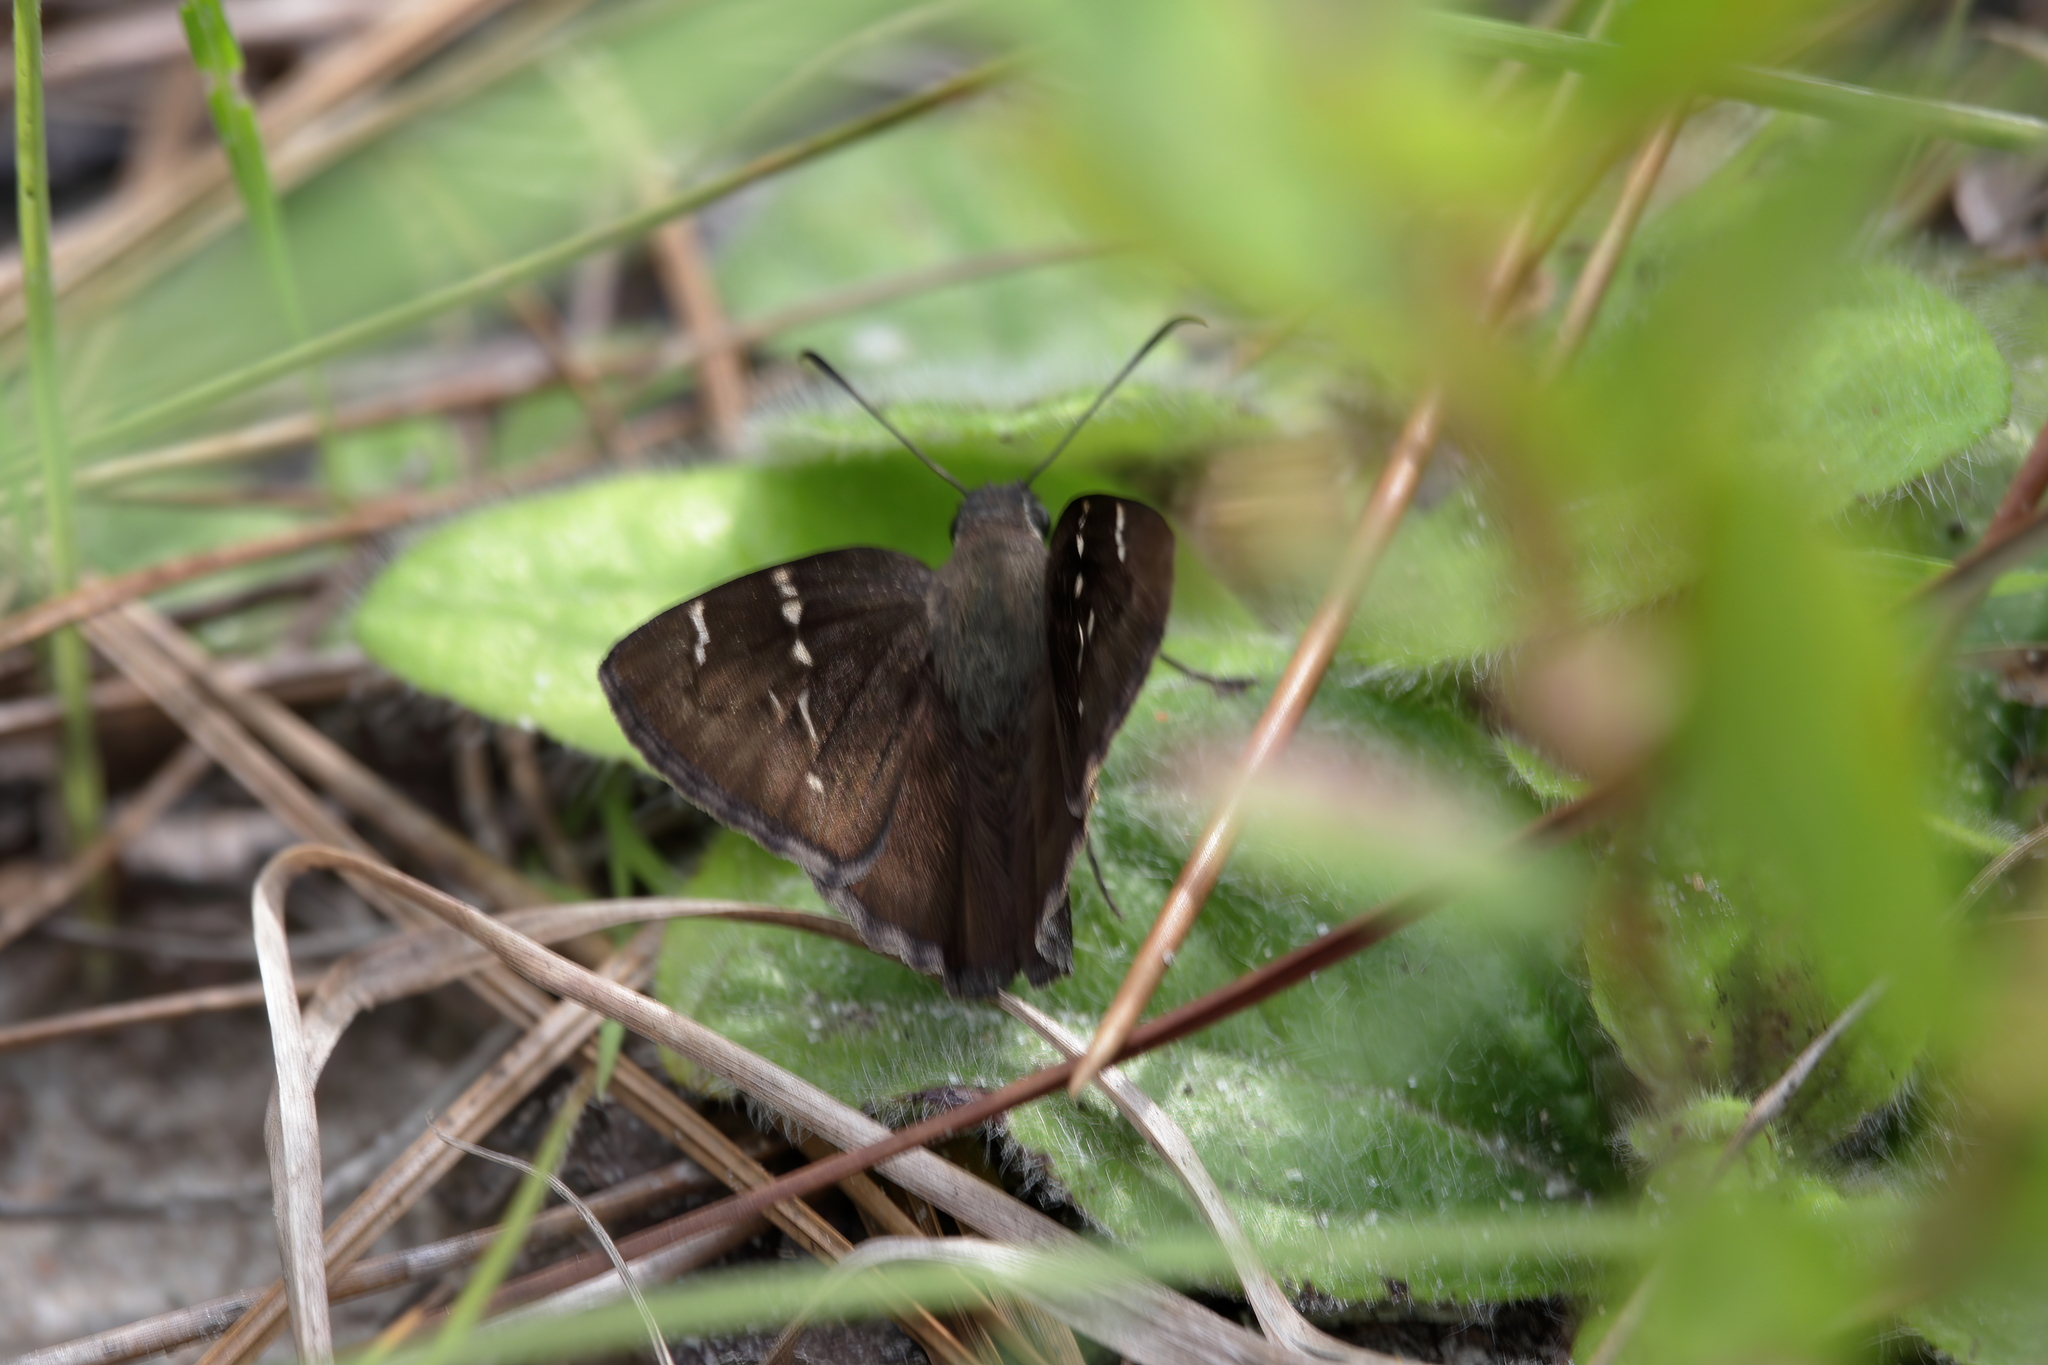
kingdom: Animalia
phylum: Arthropoda
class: Insecta
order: Lepidoptera
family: Hesperiidae
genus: Thorybes
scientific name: Thorybes mexicana
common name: Mexican cloudywing
